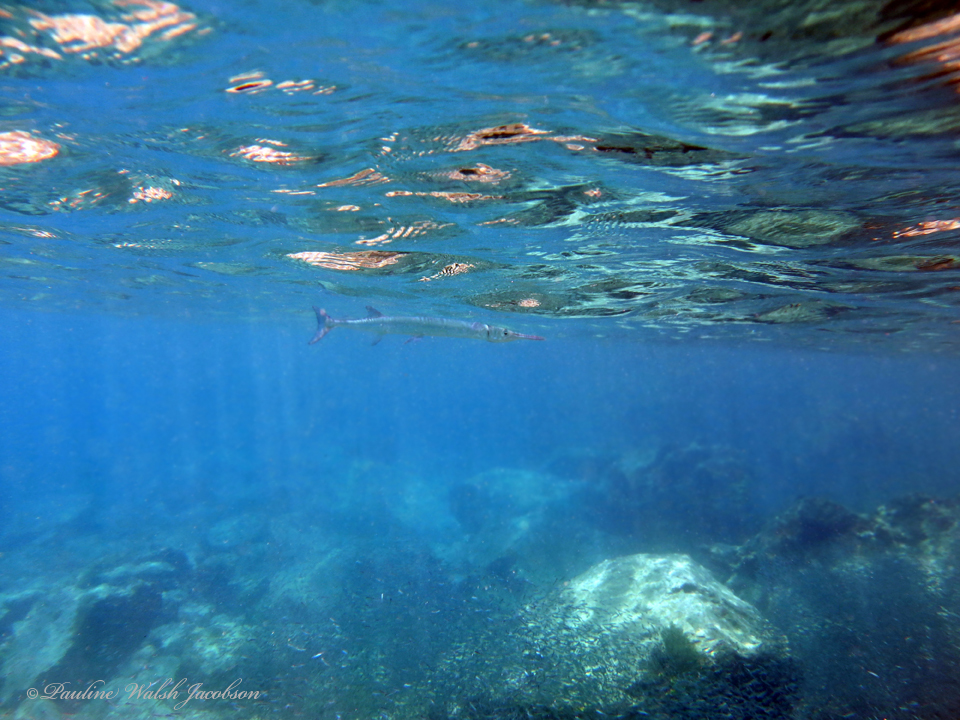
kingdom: Animalia
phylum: Chordata
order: Beloniformes
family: Belonidae
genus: Tylosurus
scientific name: Tylosurus crocodilus
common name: Houndfish
